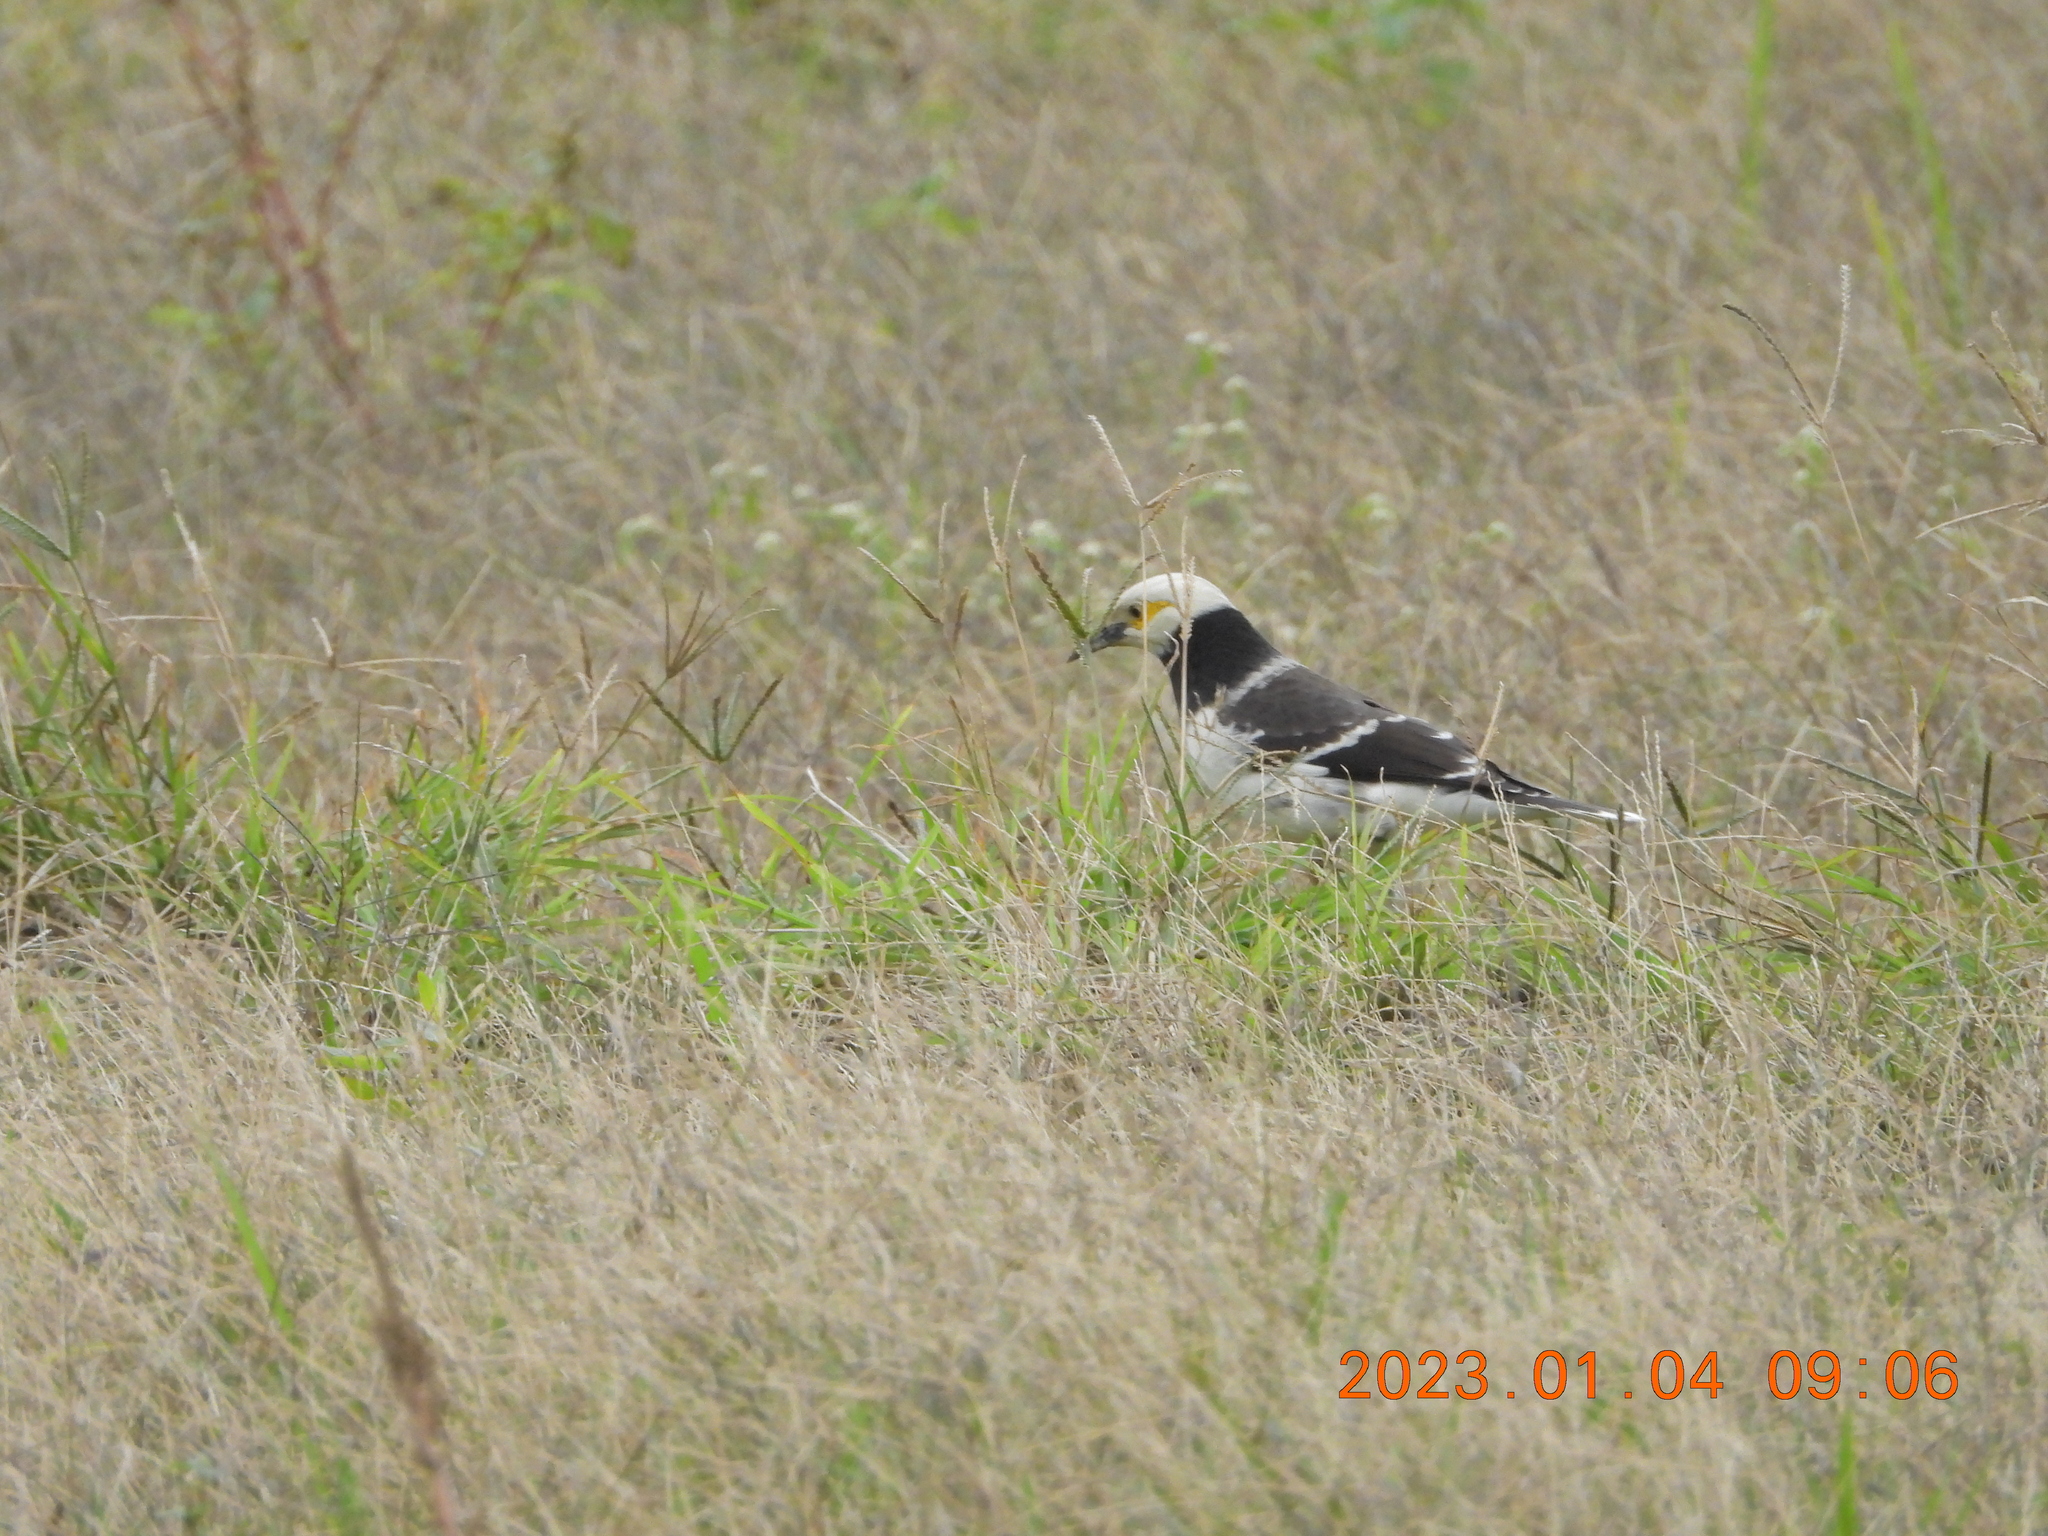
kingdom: Animalia
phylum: Chordata
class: Aves
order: Passeriformes
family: Sturnidae
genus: Gracupica
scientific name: Gracupica nigricollis
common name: Black-collared starling
